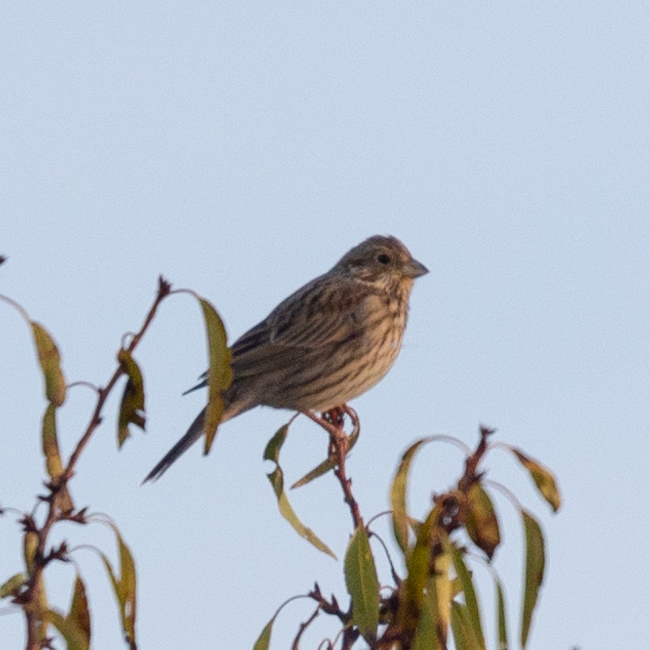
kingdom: Animalia
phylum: Chordata
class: Aves
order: Passeriformes
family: Emberizidae
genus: Emberiza
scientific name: Emberiza calandra
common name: Corn bunting
